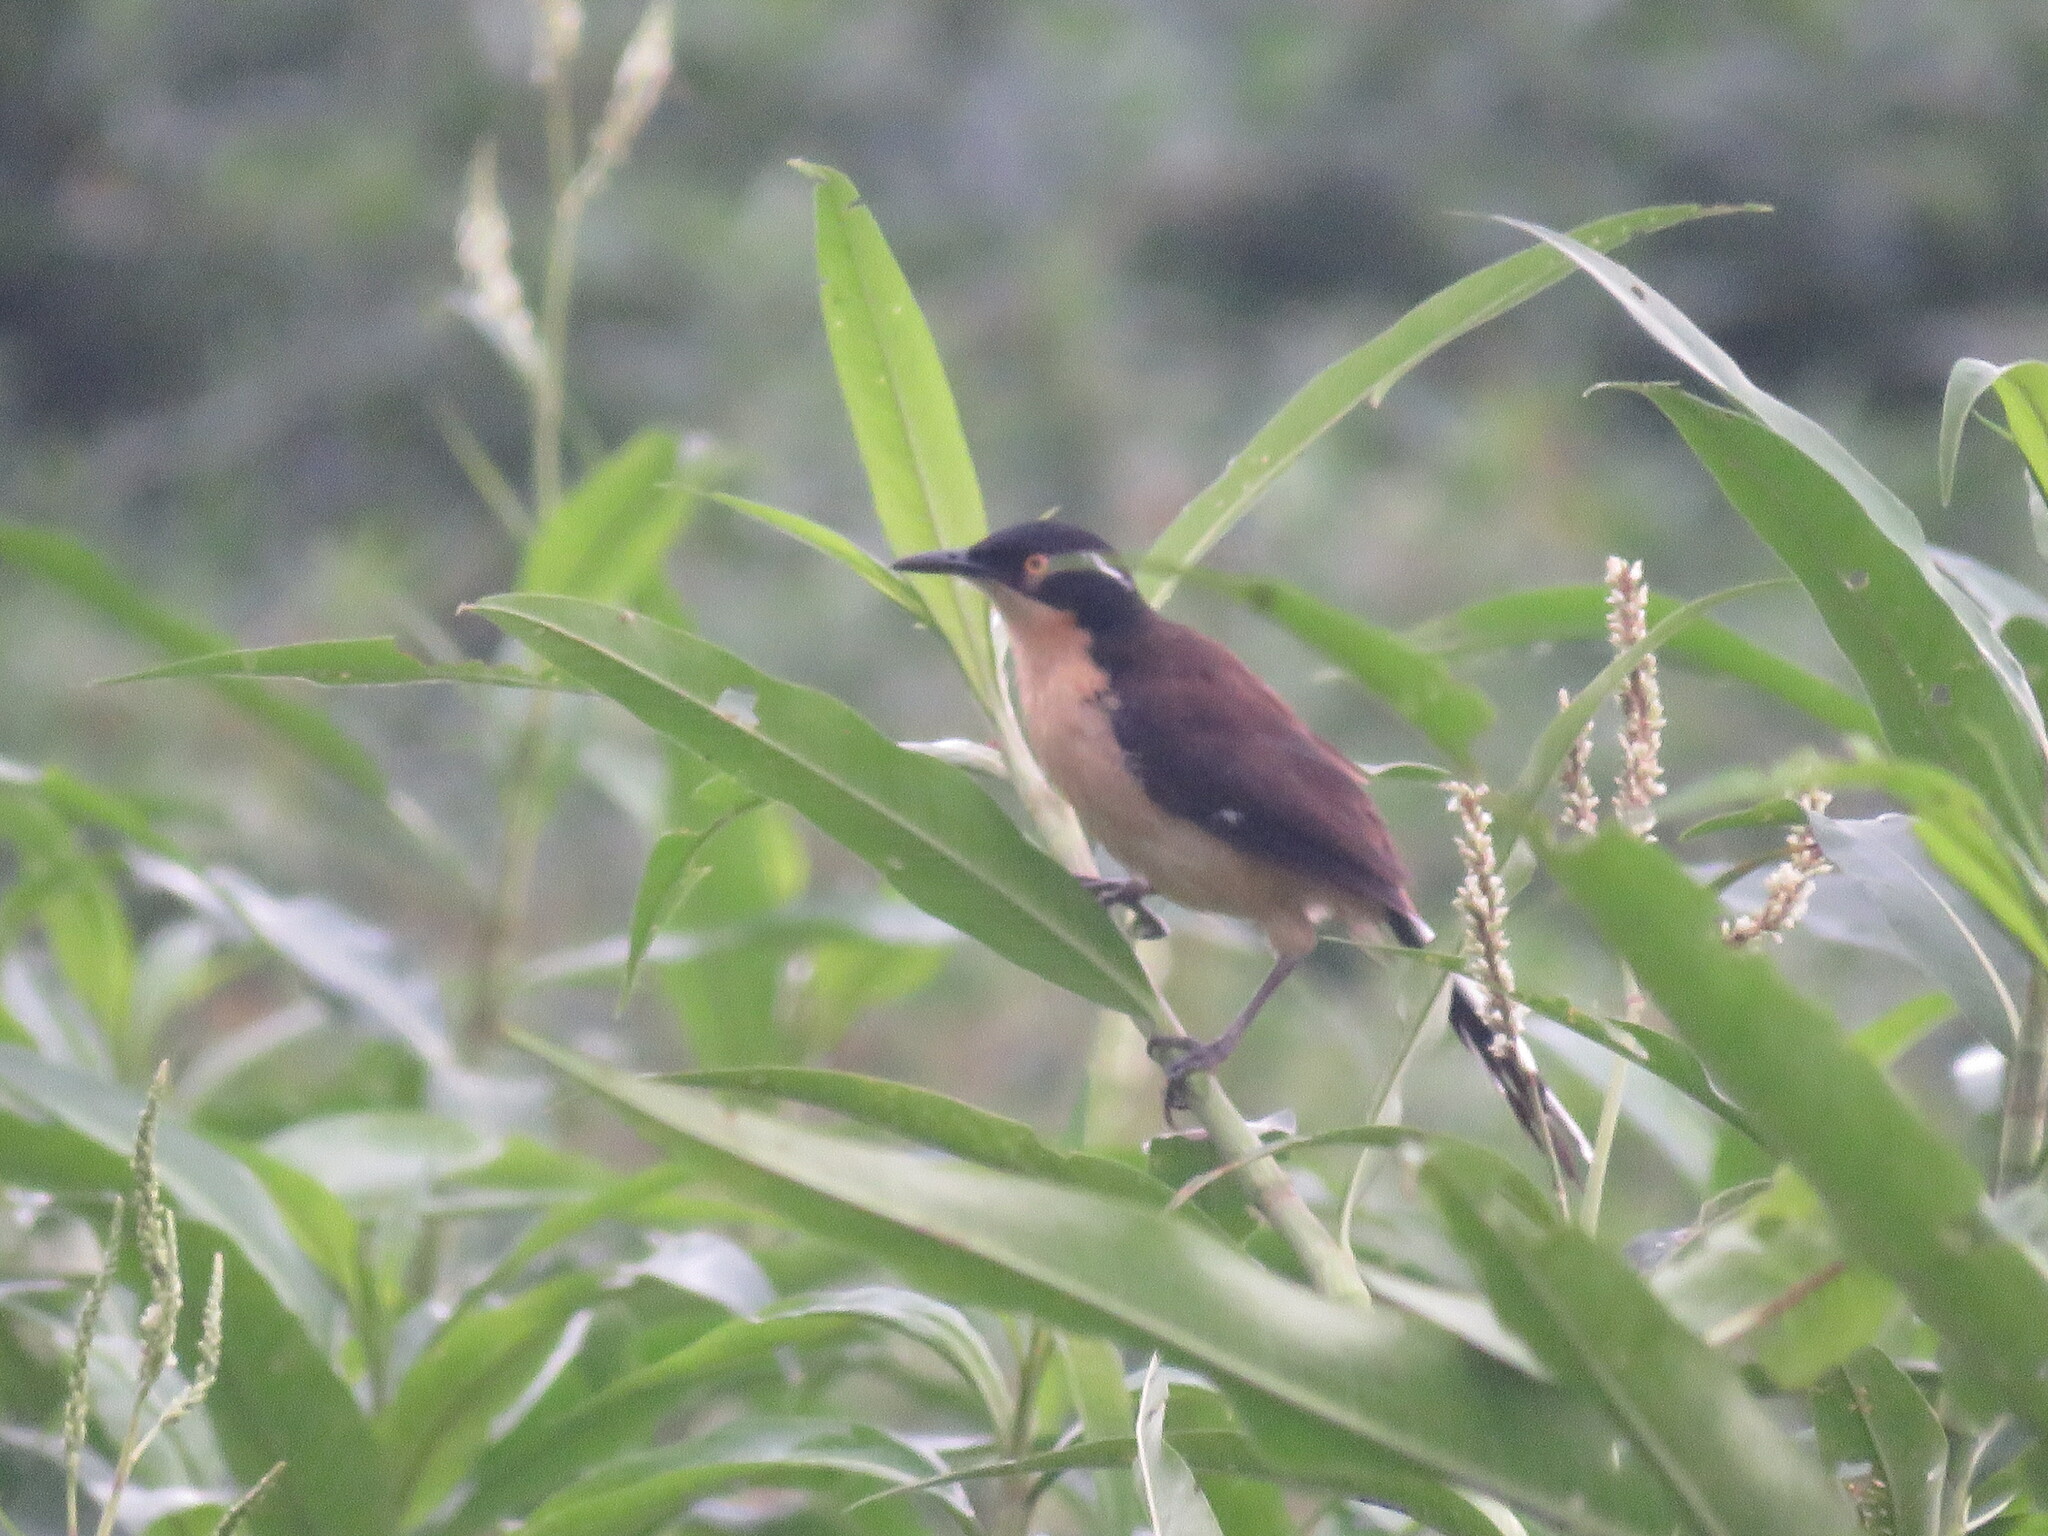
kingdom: Animalia
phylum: Chordata
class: Aves
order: Passeriformes
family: Donacobiidae
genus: Donacobius
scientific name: Donacobius atricapilla
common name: Black-capped donacobius
